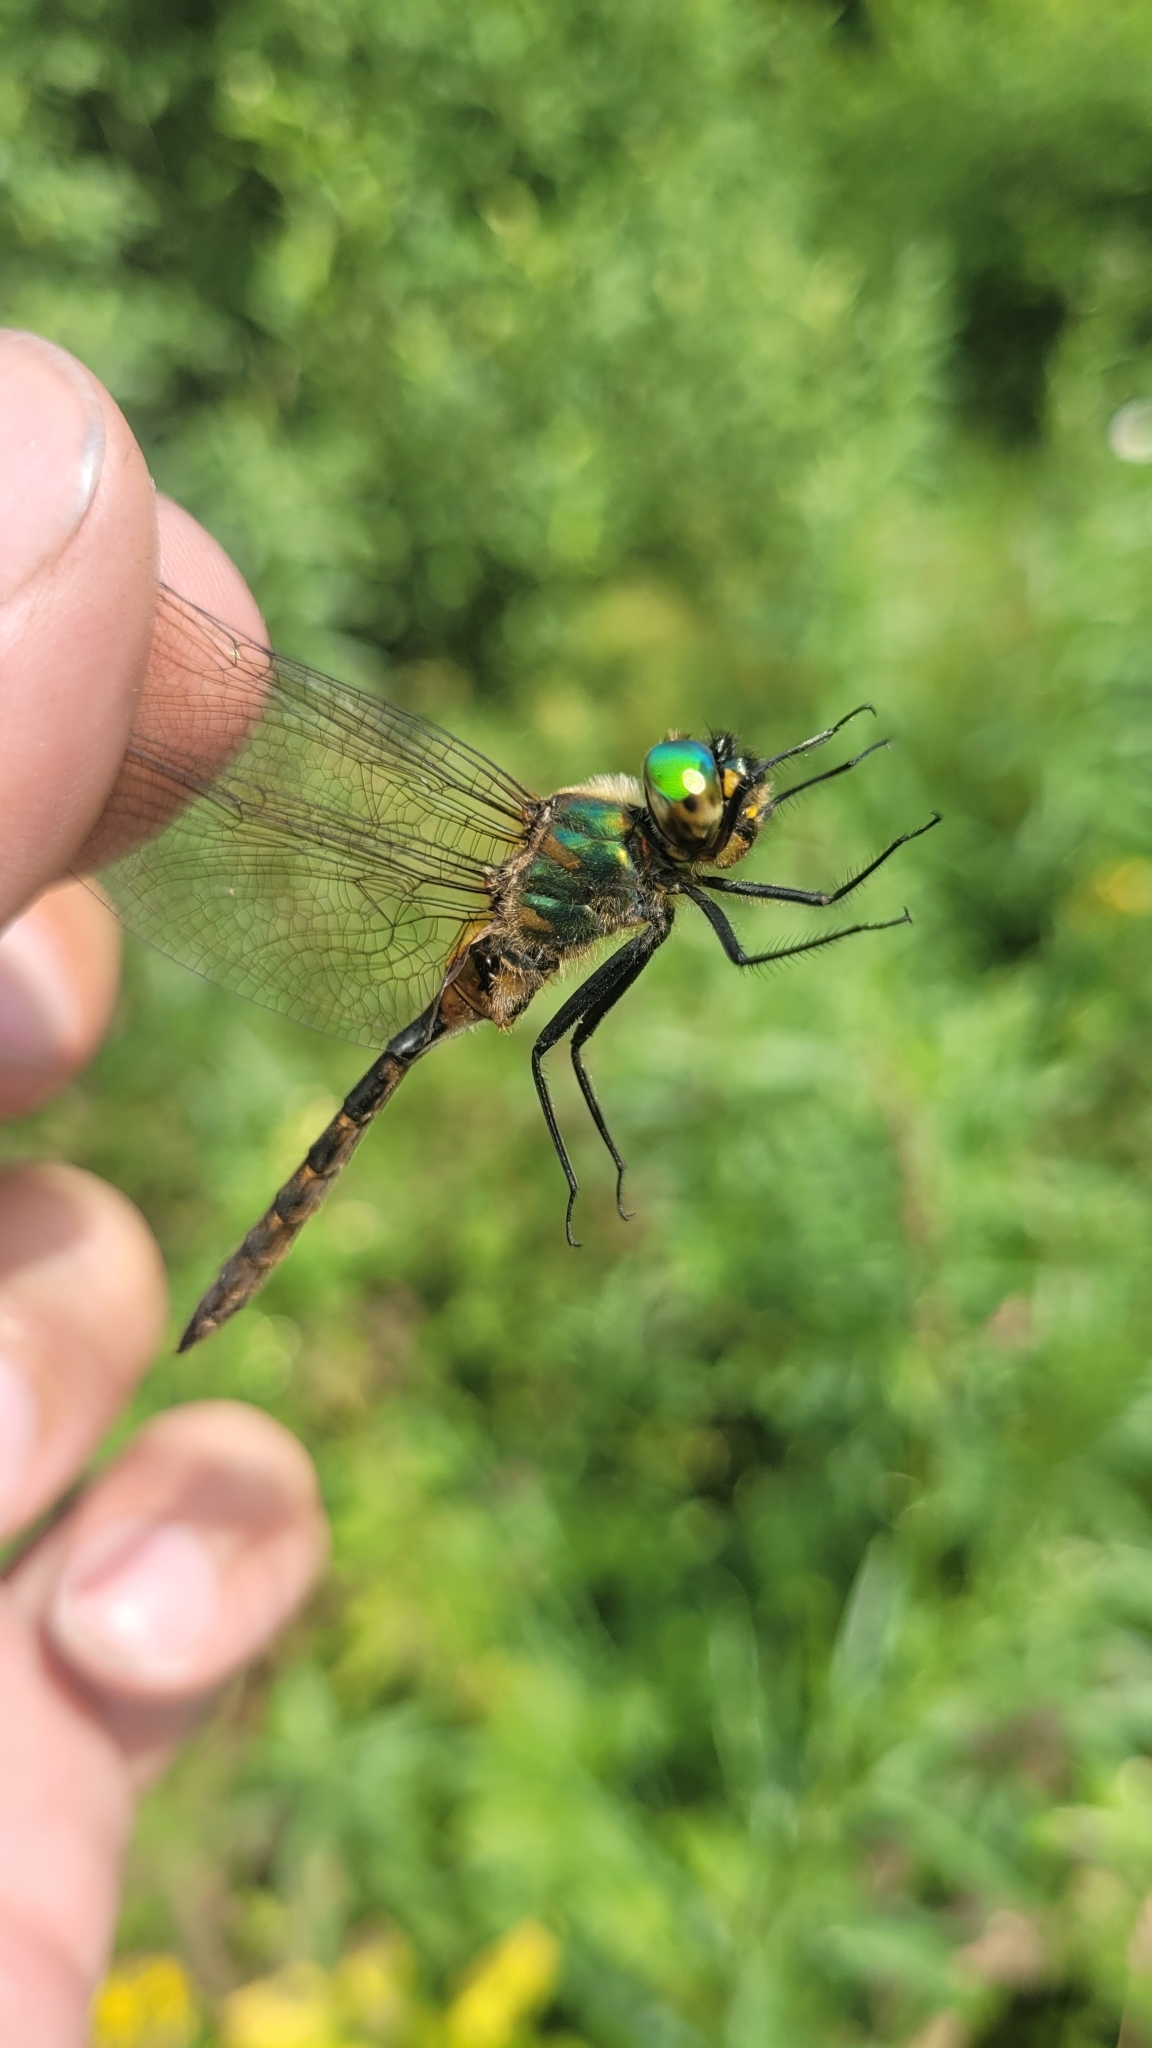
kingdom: Animalia
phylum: Arthropoda
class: Insecta
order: Odonata
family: Corduliidae
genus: Somatochlora
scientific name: Somatochlora flavomaculata
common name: Yellow-spotted emerald
